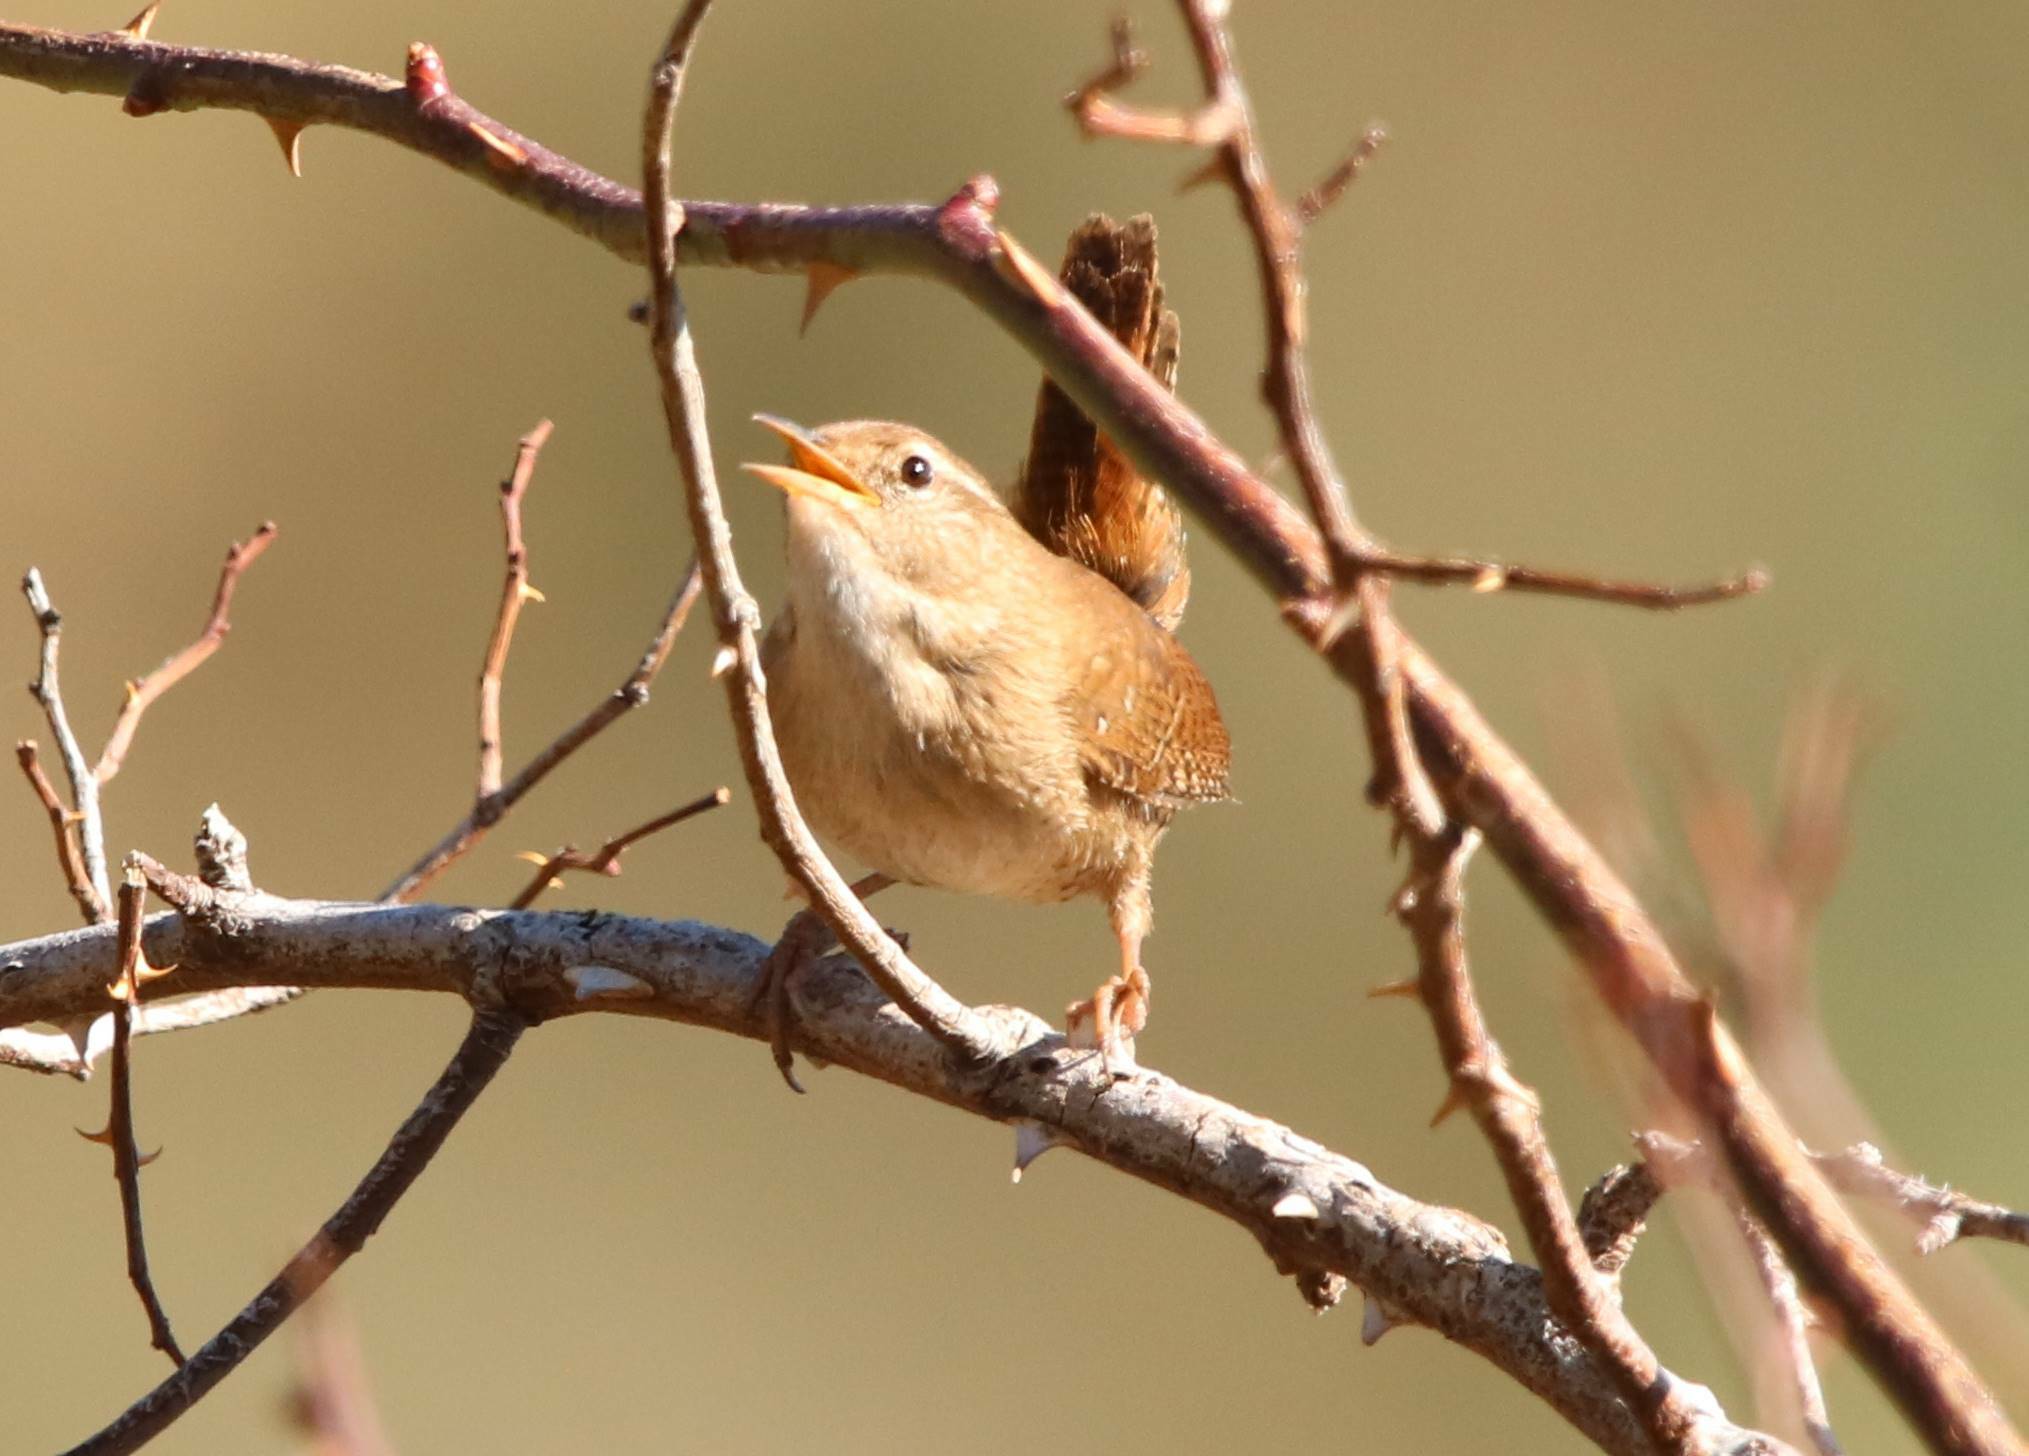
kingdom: Animalia
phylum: Chordata
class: Aves
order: Passeriformes
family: Troglodytidae
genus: Troglodytes
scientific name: Troglodytes troglodytes
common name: Eurasian wren
